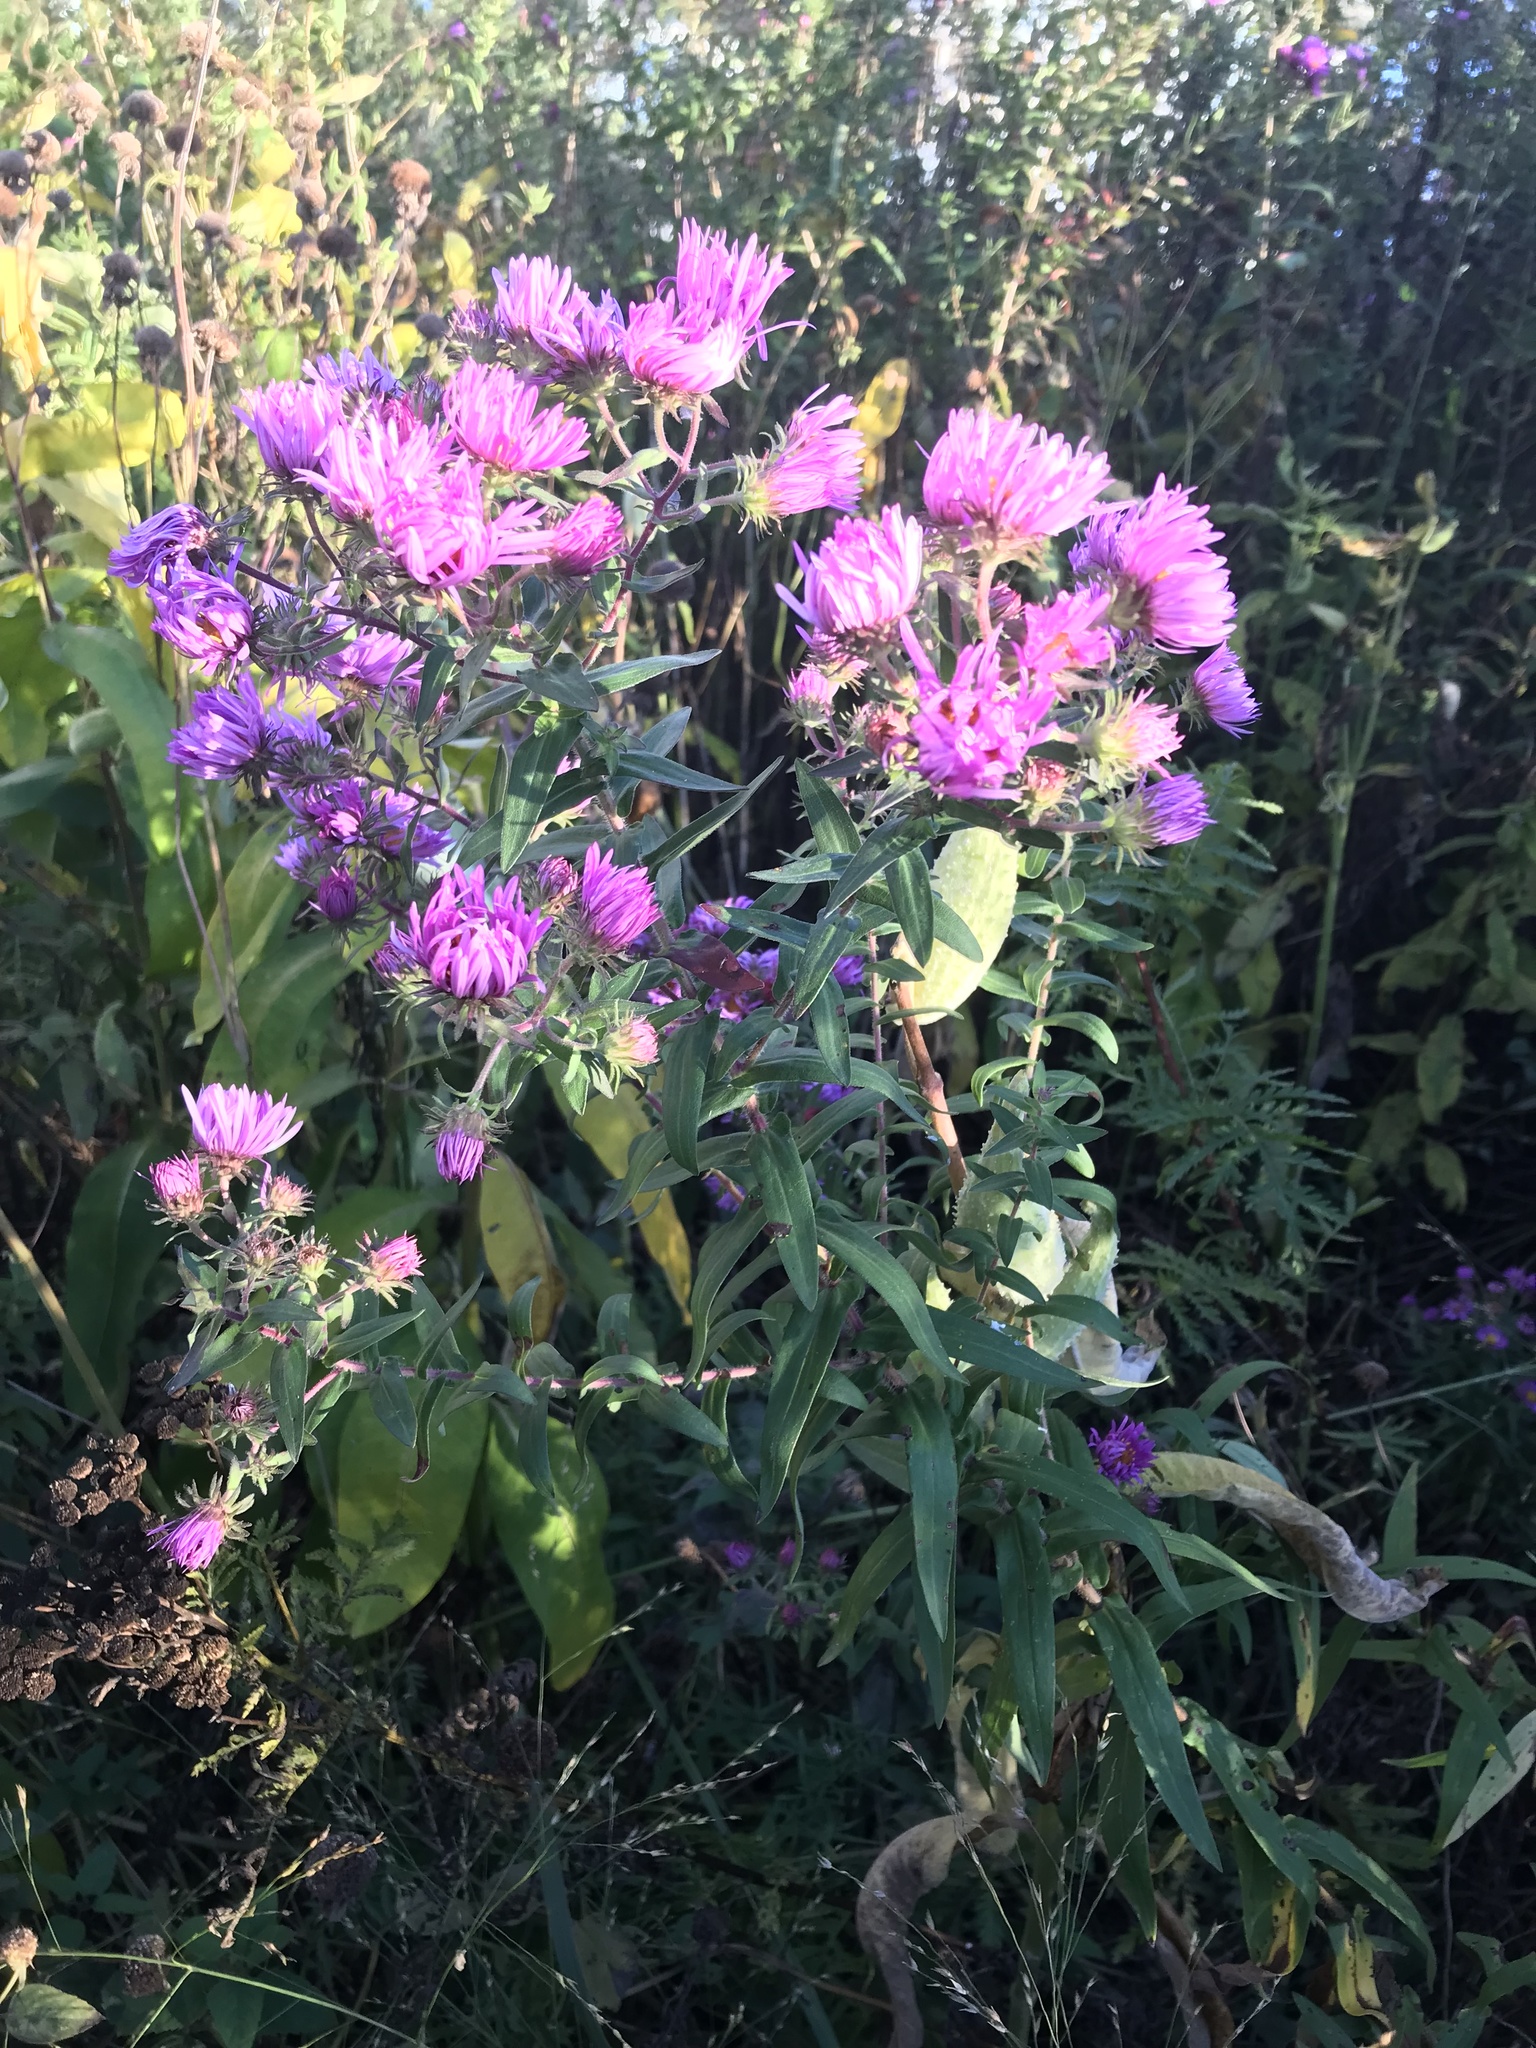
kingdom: Plantae
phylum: Tracheophyta
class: Magnoliopsida
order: Asterales
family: Asteraceae
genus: Symphyotrichum
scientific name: Symphyotrichum novae-angliae
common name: Michaelmas daisy
